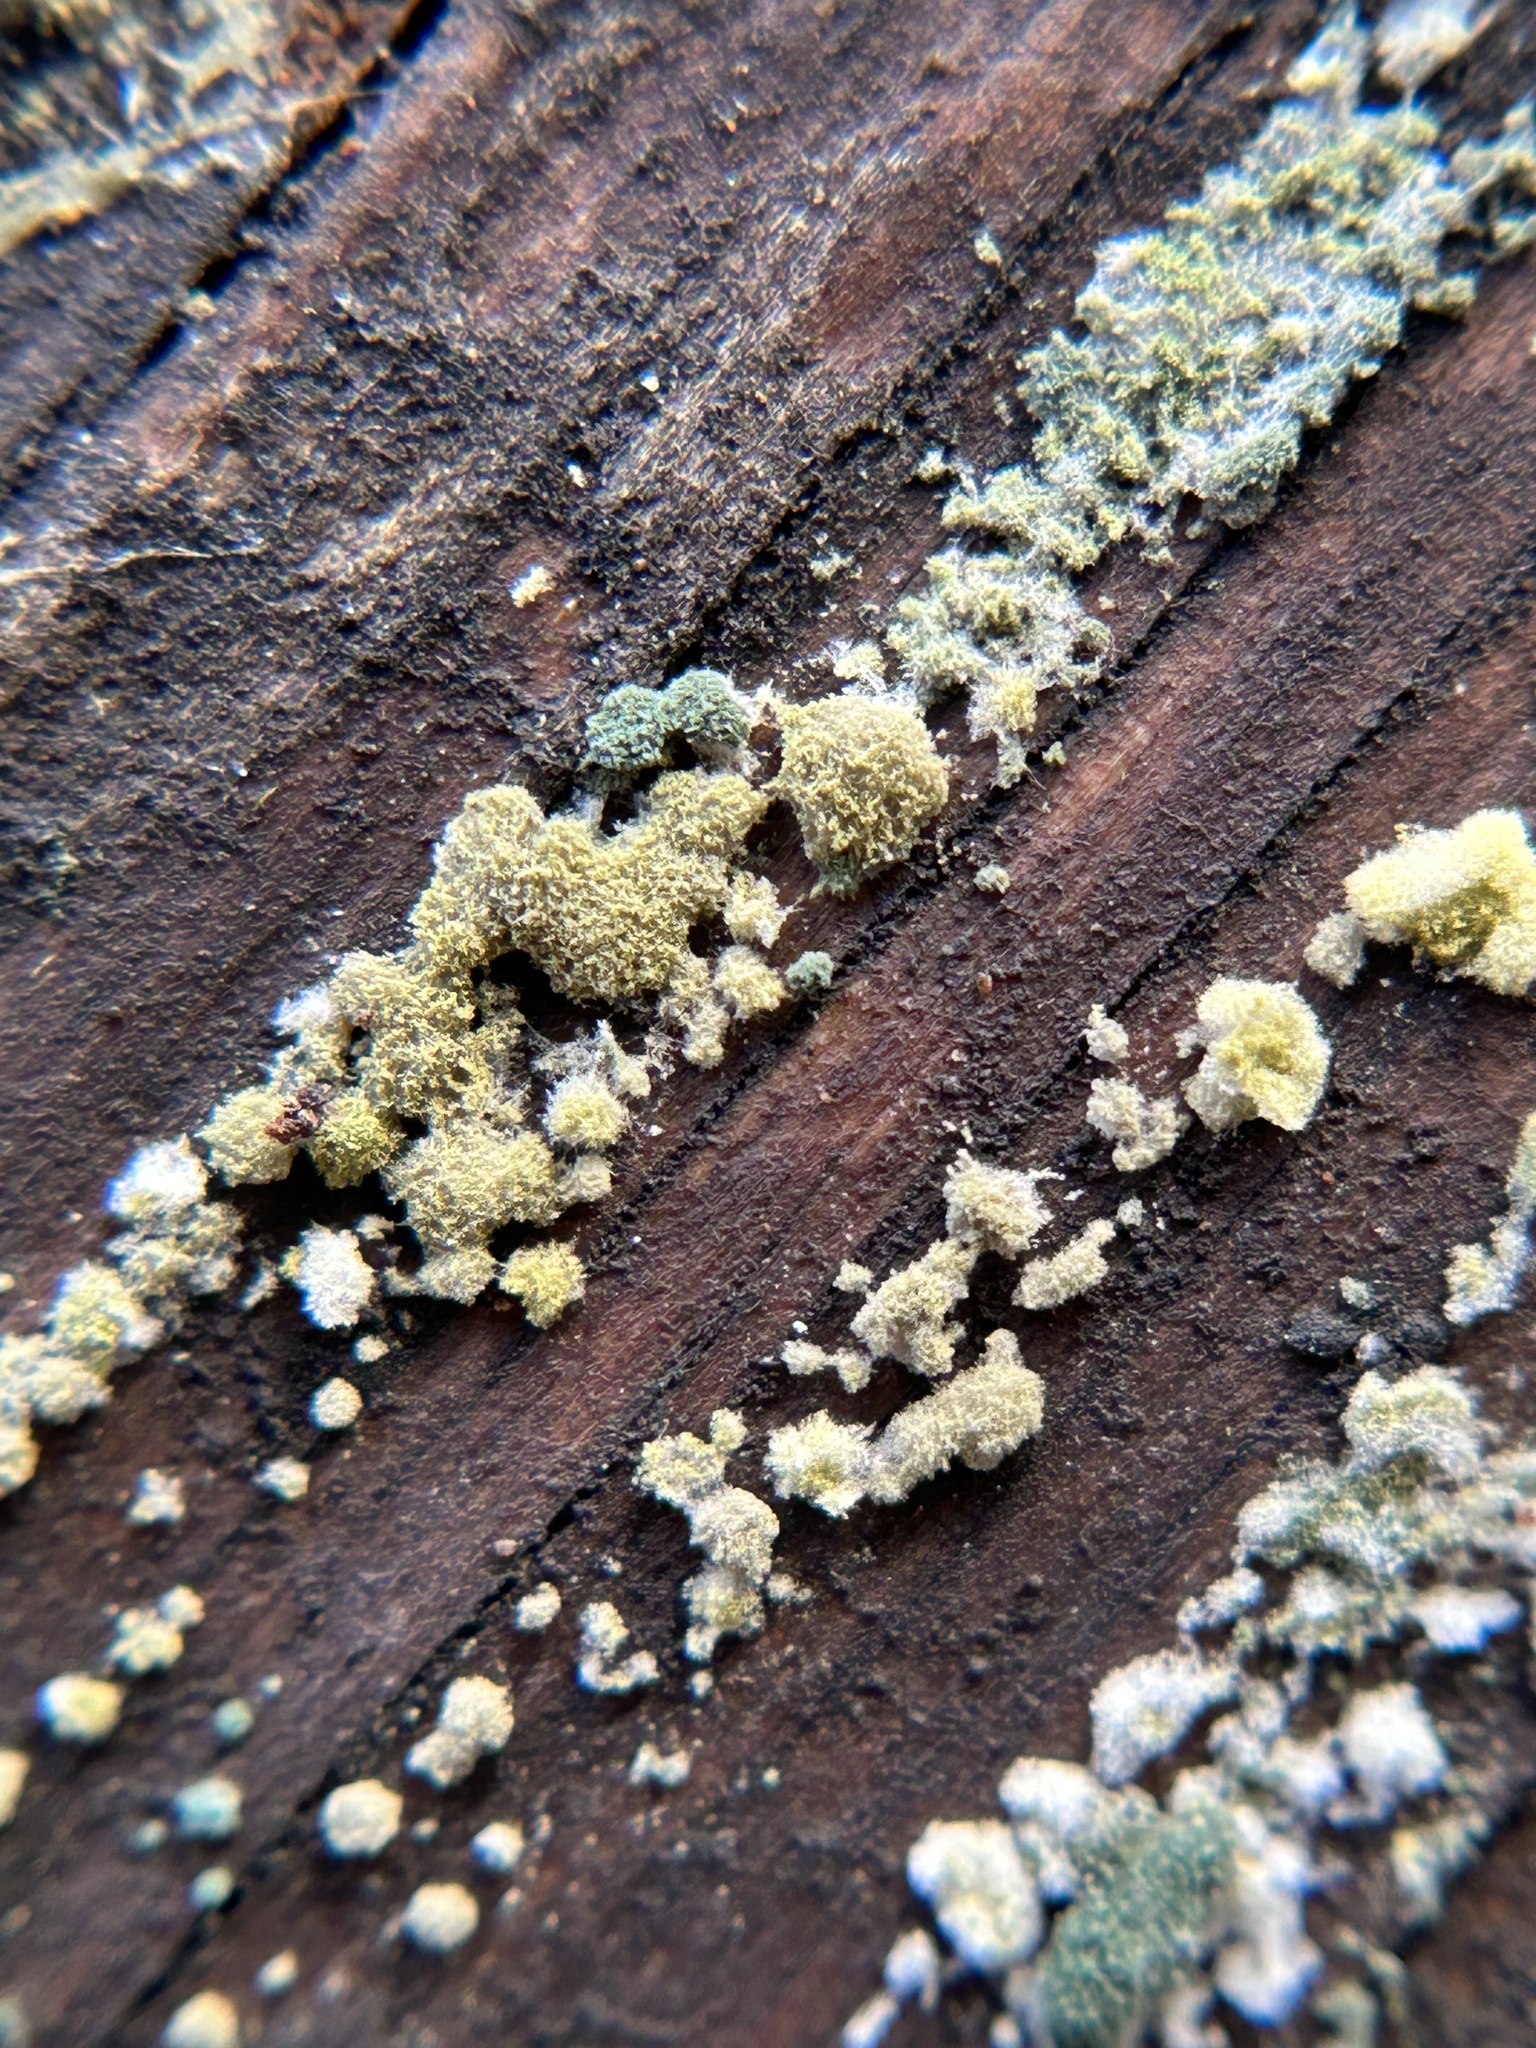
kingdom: Fungi
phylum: Ascomycota
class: Sordariomycetes
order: Hypocreales
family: Hypocreaceae
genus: Trichoderma
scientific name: Trichoderma viride
